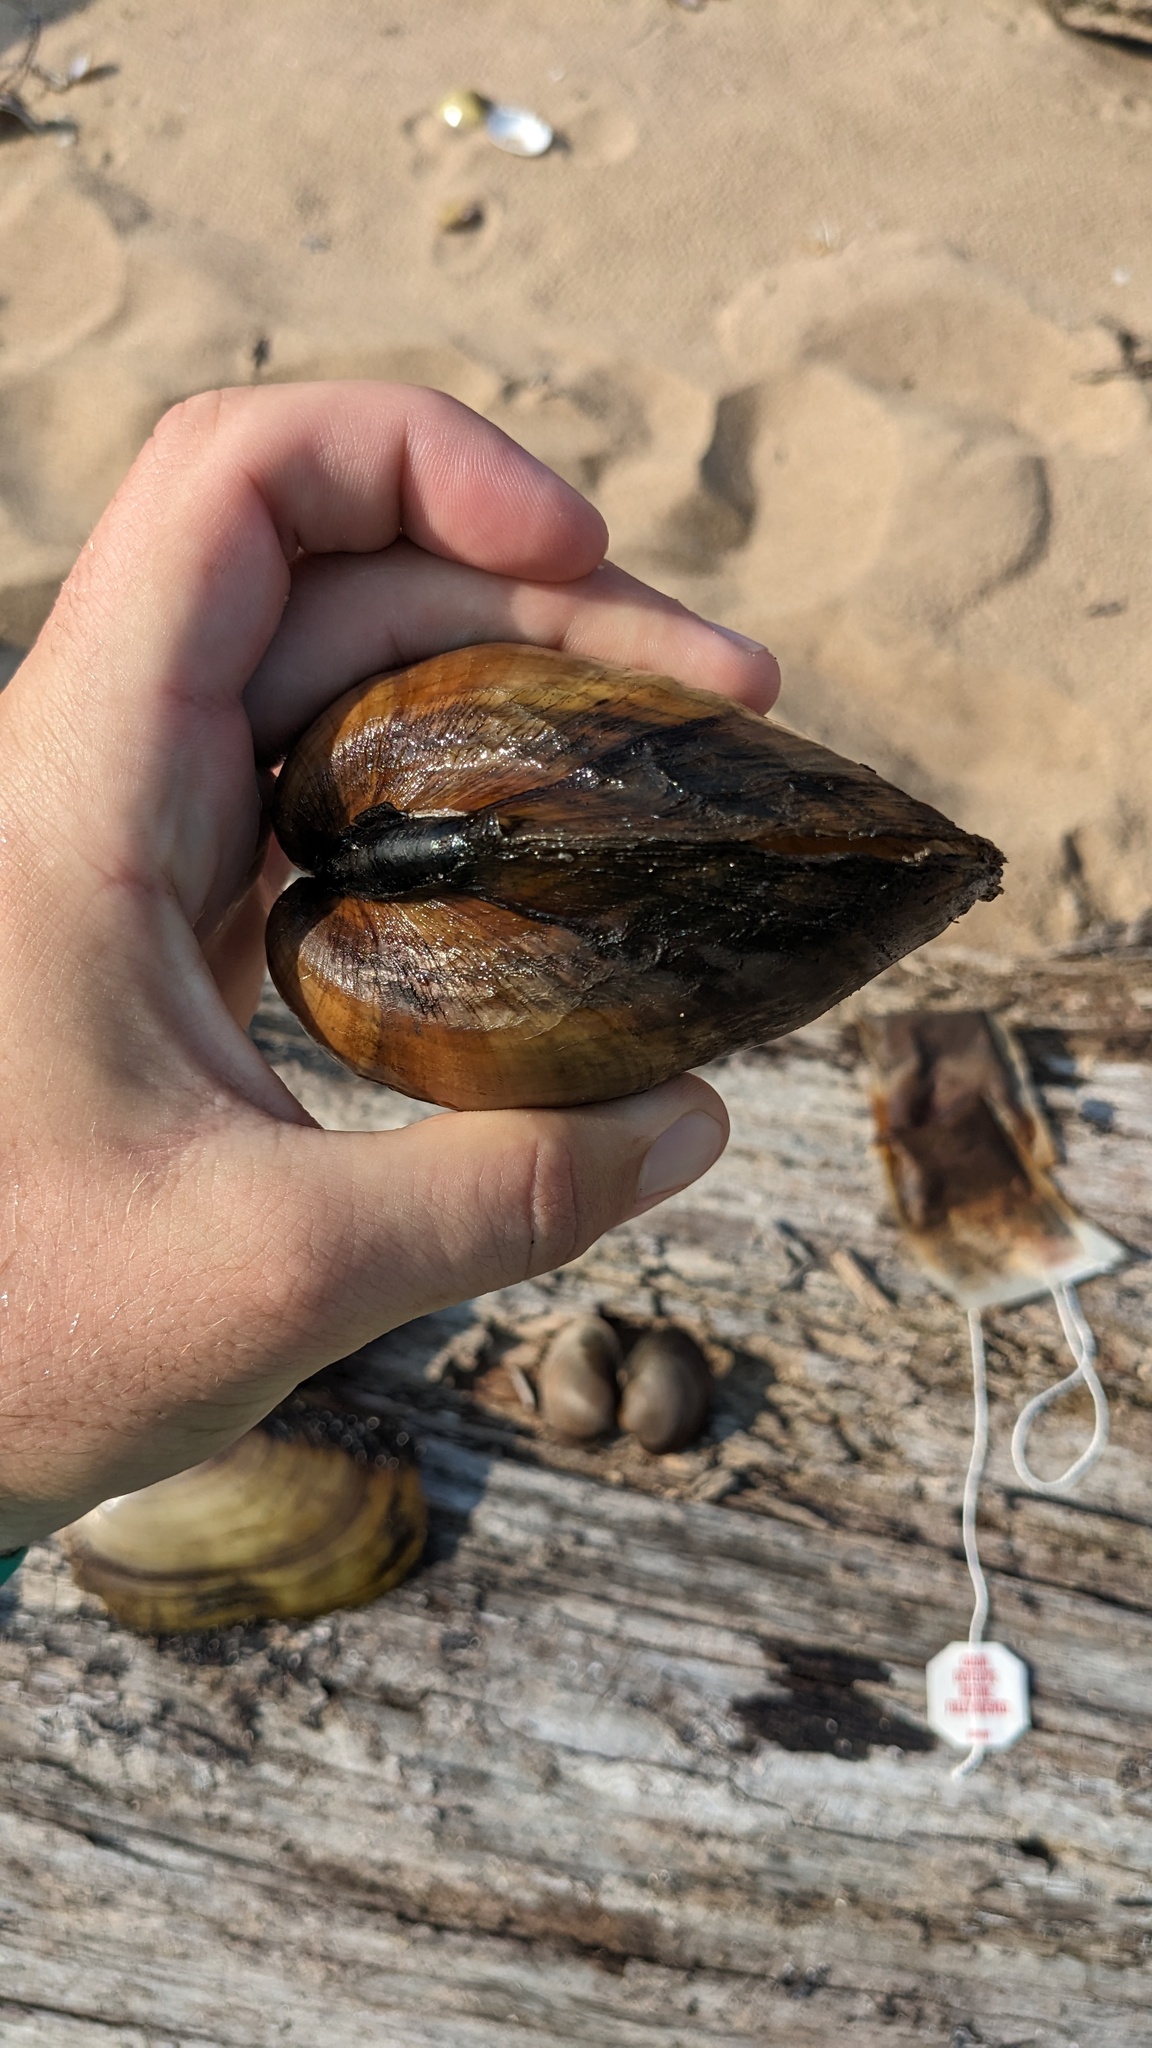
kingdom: Animalia
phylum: Mollusca
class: Bivalvia
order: Unionida
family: Unionidae
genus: Lampsilis
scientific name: Lampsilis cardium
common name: Plain pocketbook
